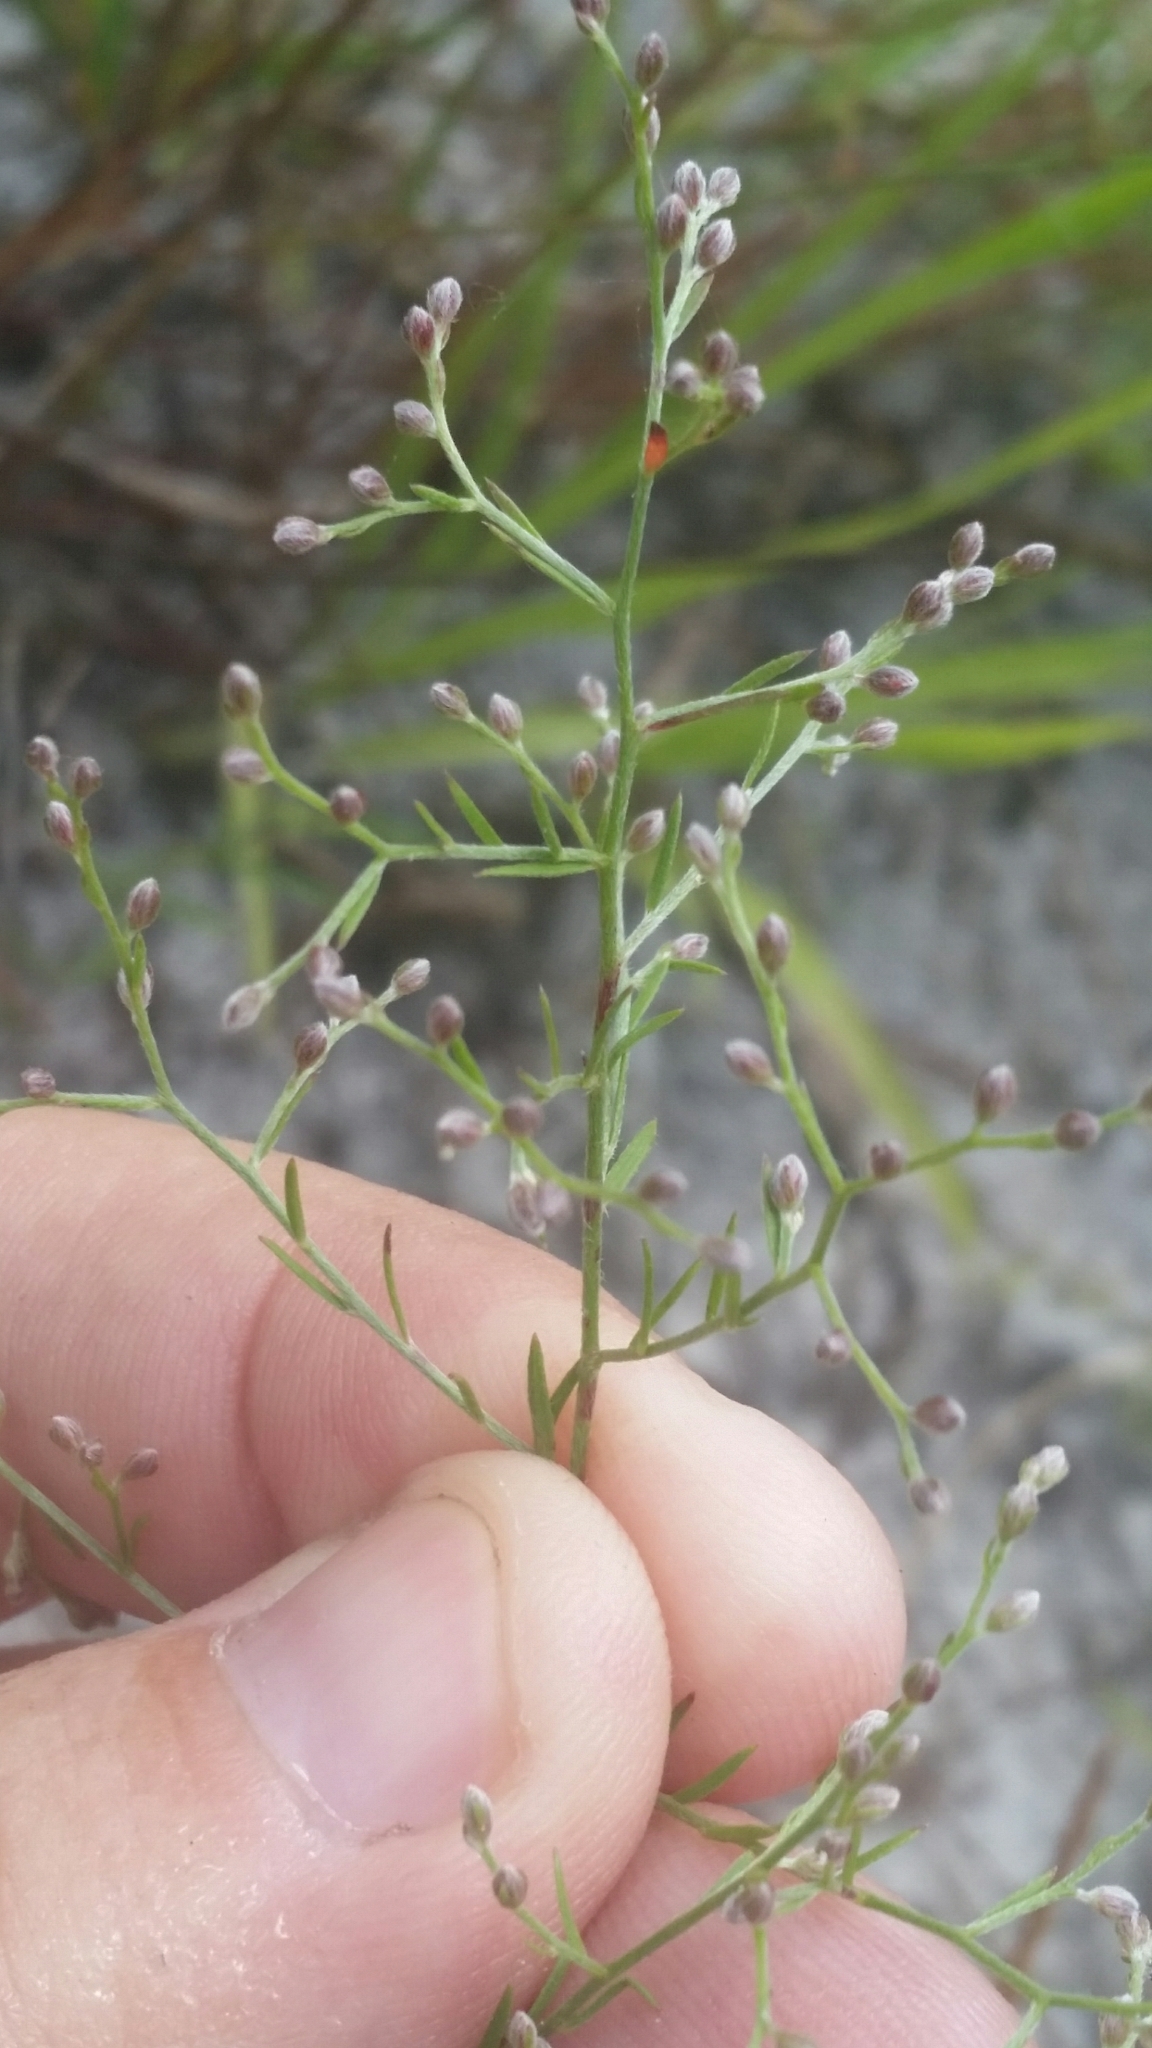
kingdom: Plantae
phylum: Tracheophyta
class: Magnoliopsida
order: Malvales
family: Cistaceae
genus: Lechea
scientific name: Lechea torreyi
